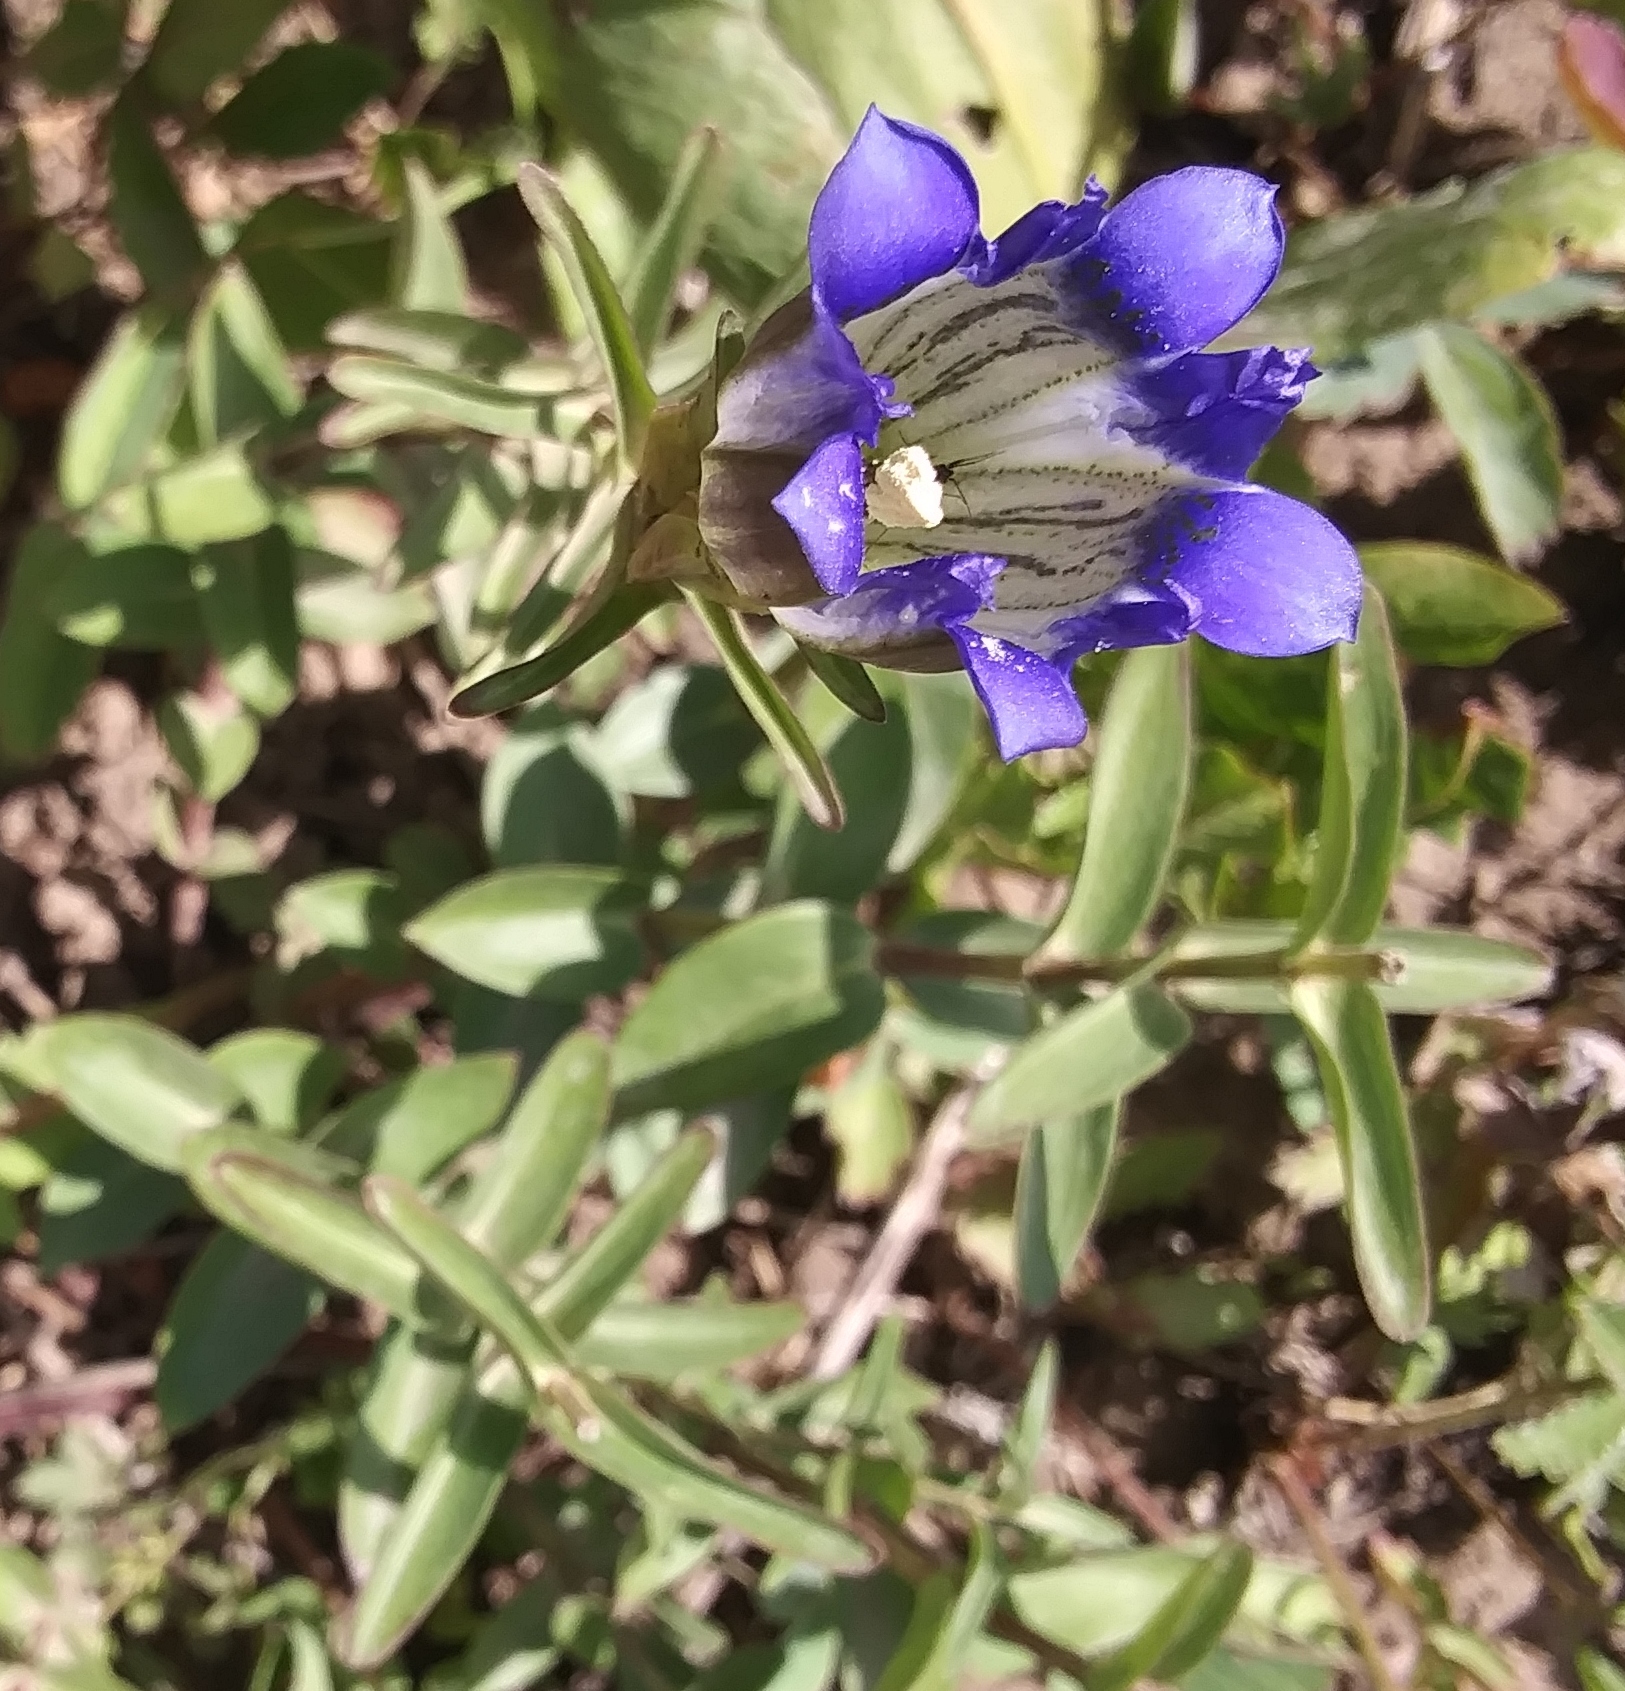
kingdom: Plantae
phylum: Tracheophyta
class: Magnoliopsida
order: Gentianales
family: Gentianaceae
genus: Gentiana
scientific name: Gentiana parryi
